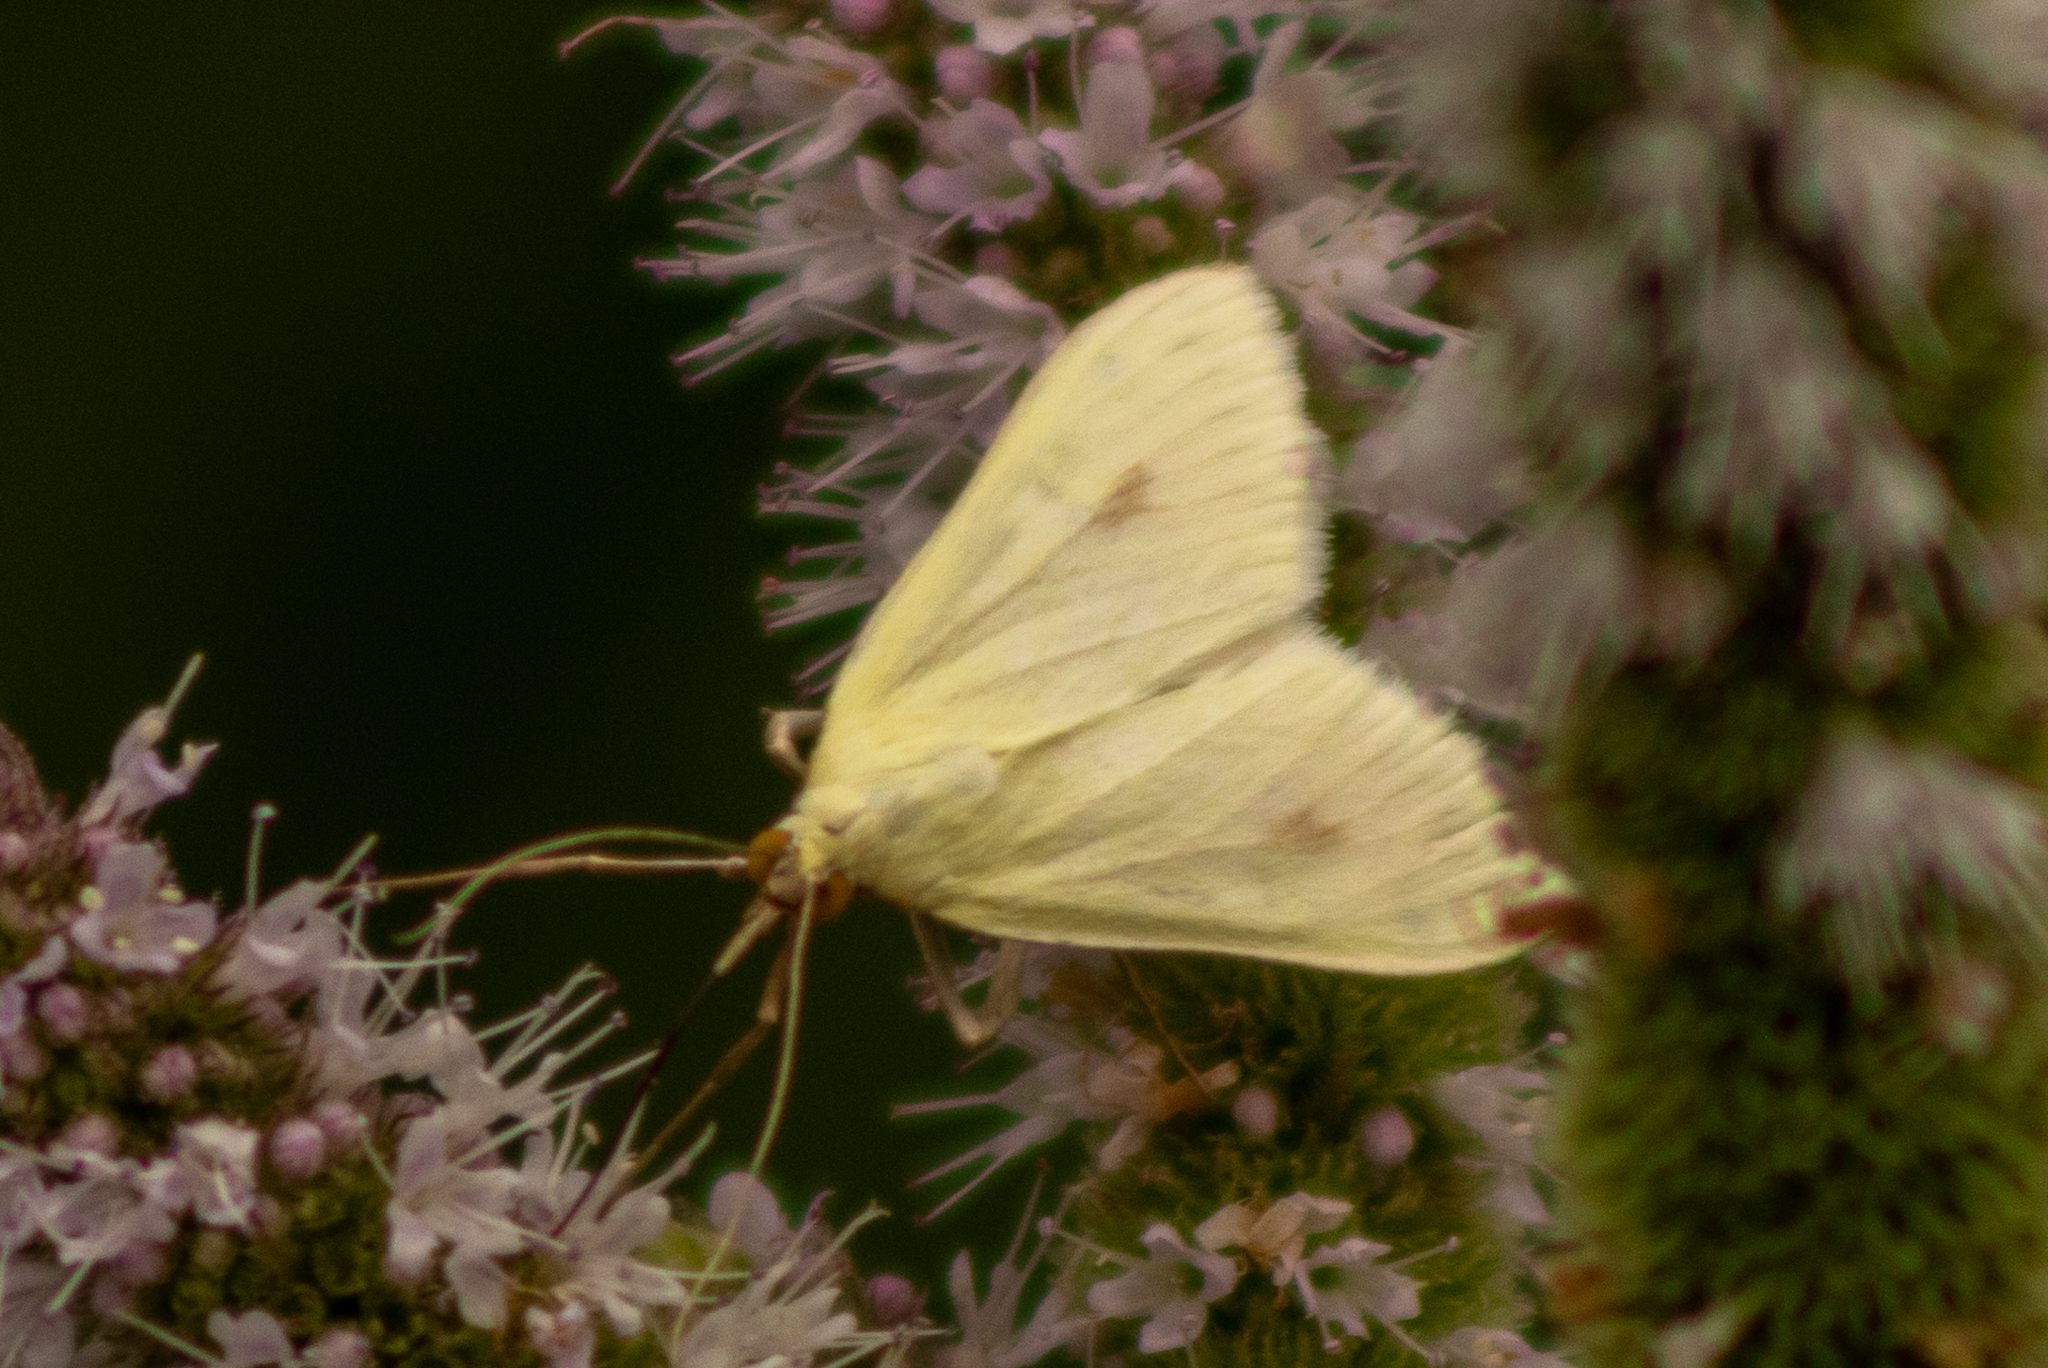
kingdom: Animalia
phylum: Arthropoda
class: Insecta
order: Lepidoptera
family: Crambidae
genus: Sitochroa
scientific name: Sitochroa palealis
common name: Greenish-yellow sitochroa moth
